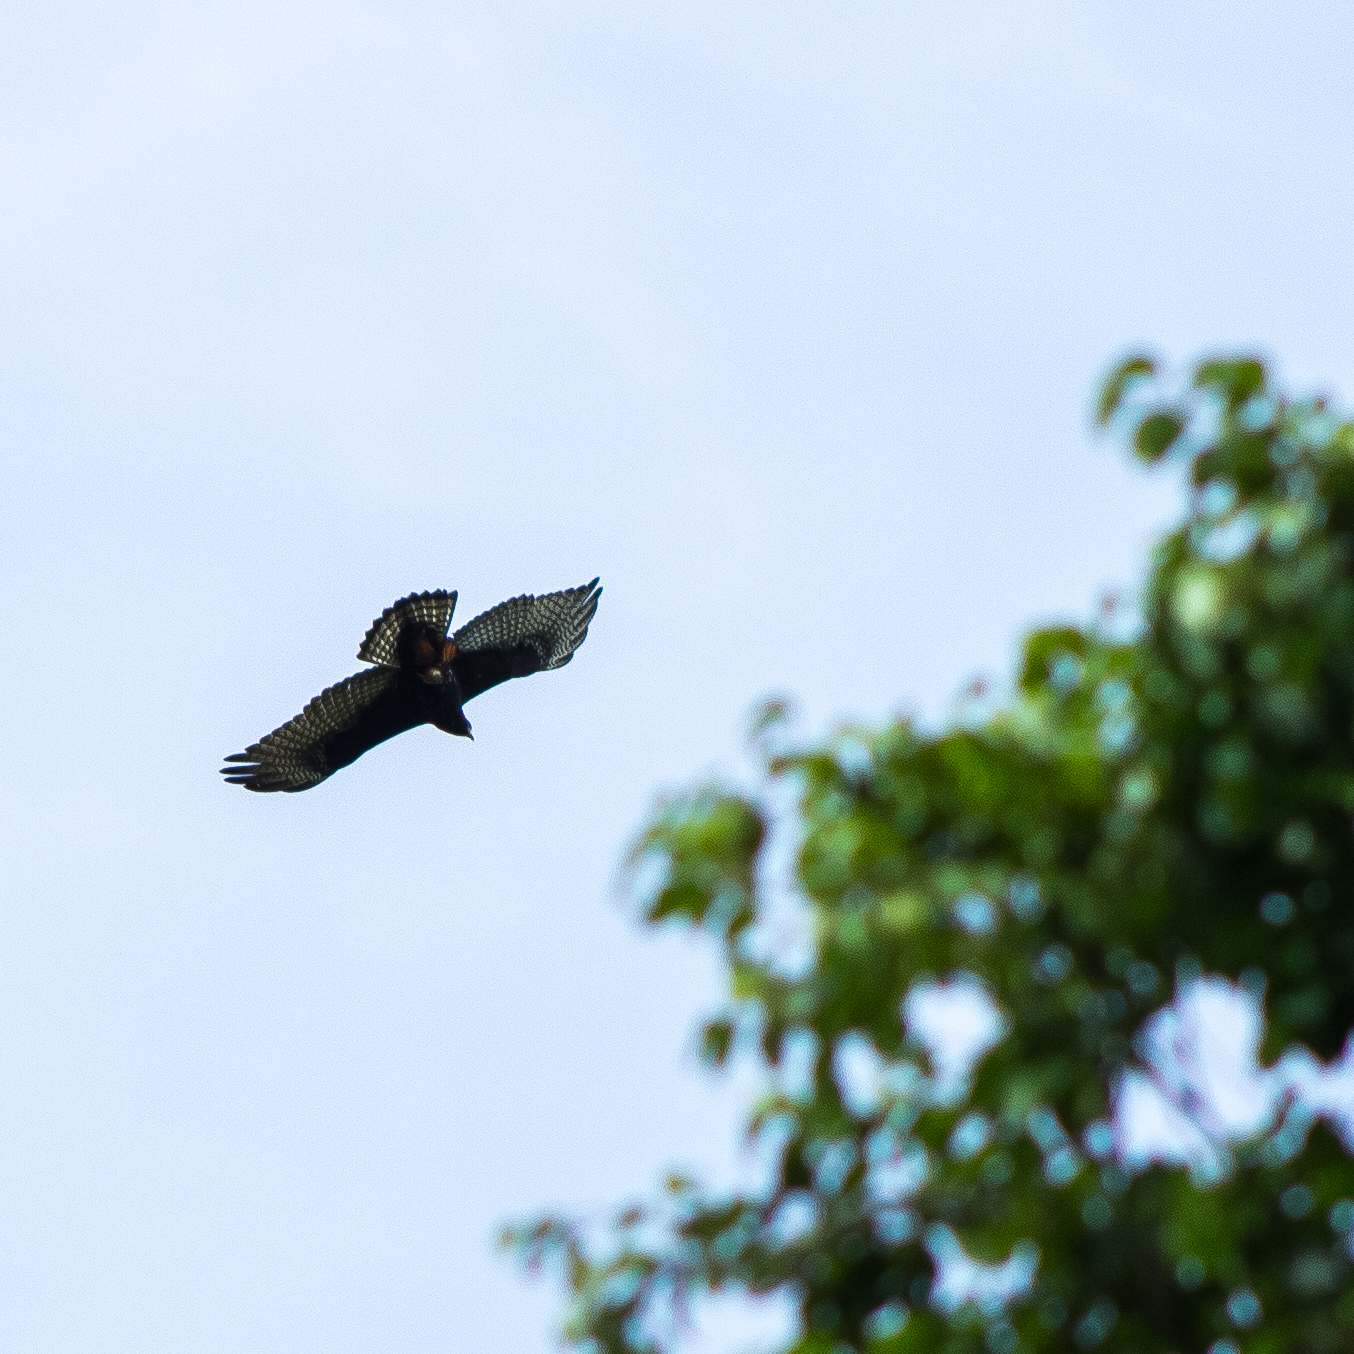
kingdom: Animalia
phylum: Chordata
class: Aves
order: Accipitriformes
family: Accipitridae
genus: Buteo
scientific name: Buteo albonotatus
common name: Zone-tailed hawk
